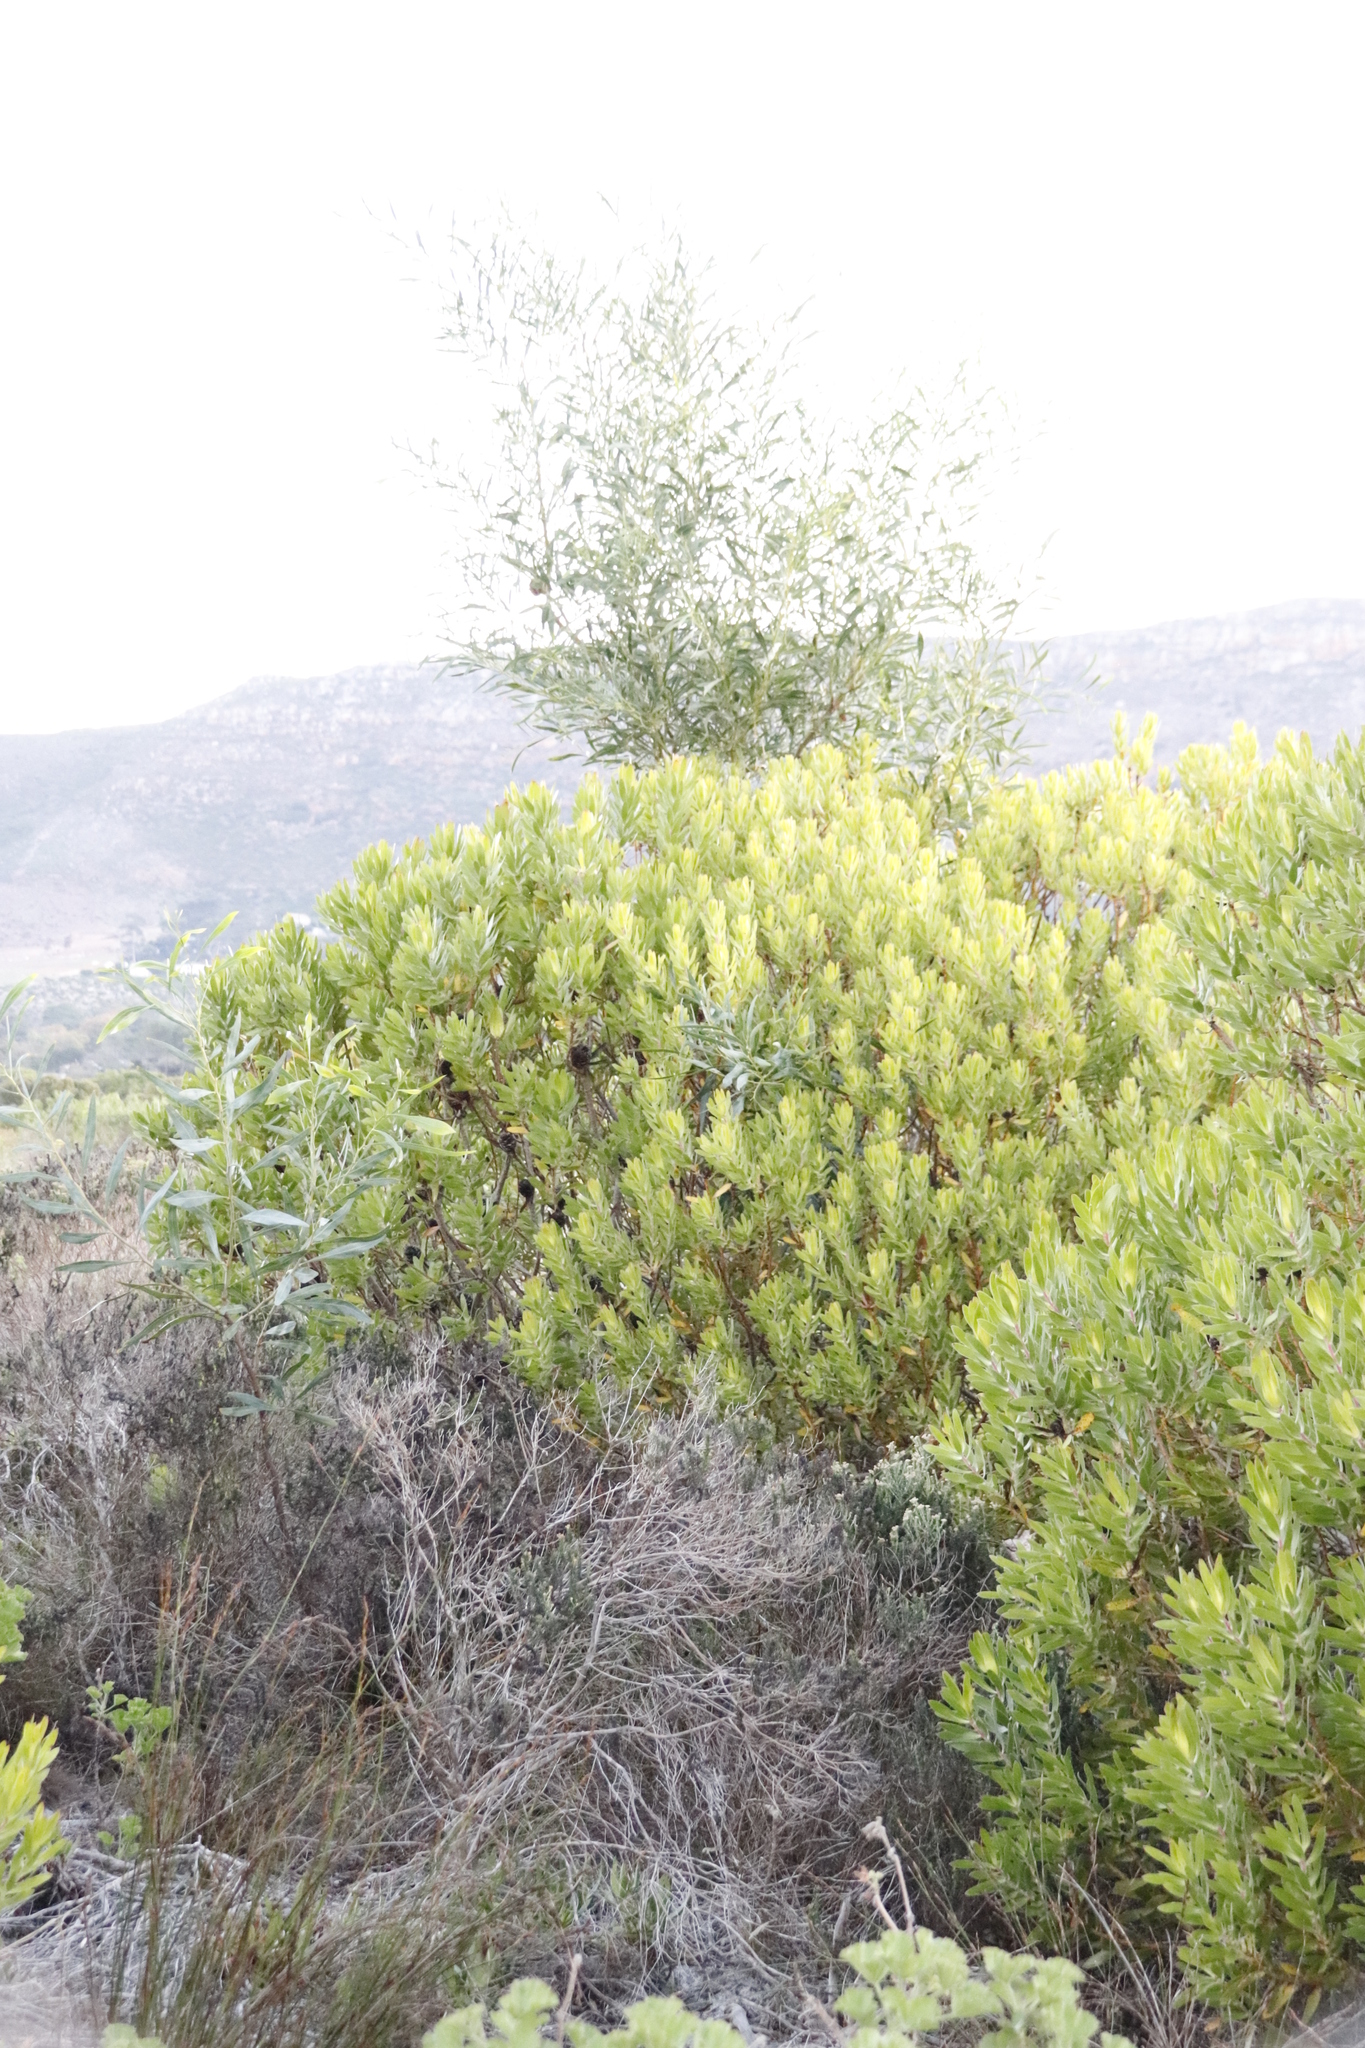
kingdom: Plantae
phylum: Tracheophyta
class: Magnoliopsida
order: Proteales
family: Proteaceae
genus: Protea
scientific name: Protea repens
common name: Sugarbush
